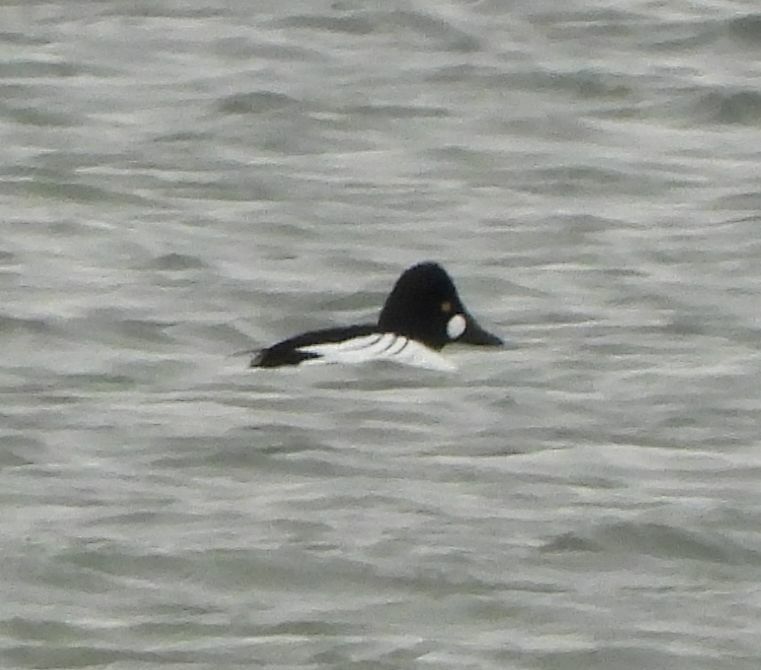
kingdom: Animalia
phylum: Chordata
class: Aves
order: Anseriformes
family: Anatidae
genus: Bucephala
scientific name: Bucephala clangula
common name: Common goldeneye
